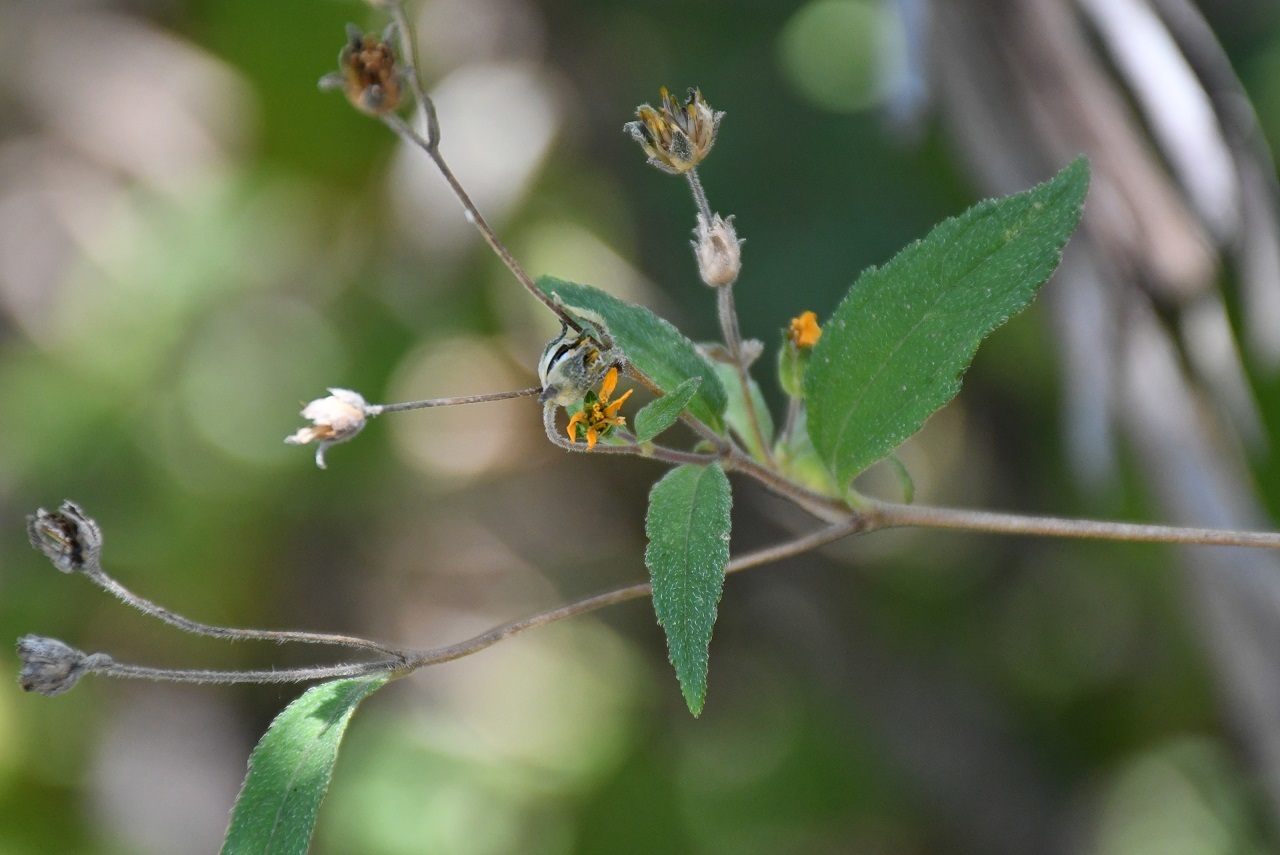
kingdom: Plantae
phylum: Tracheophyta
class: Magnoliopsida
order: Asterales
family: Asteraceae
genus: Hymenostephium
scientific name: Hymenostephium tenue
